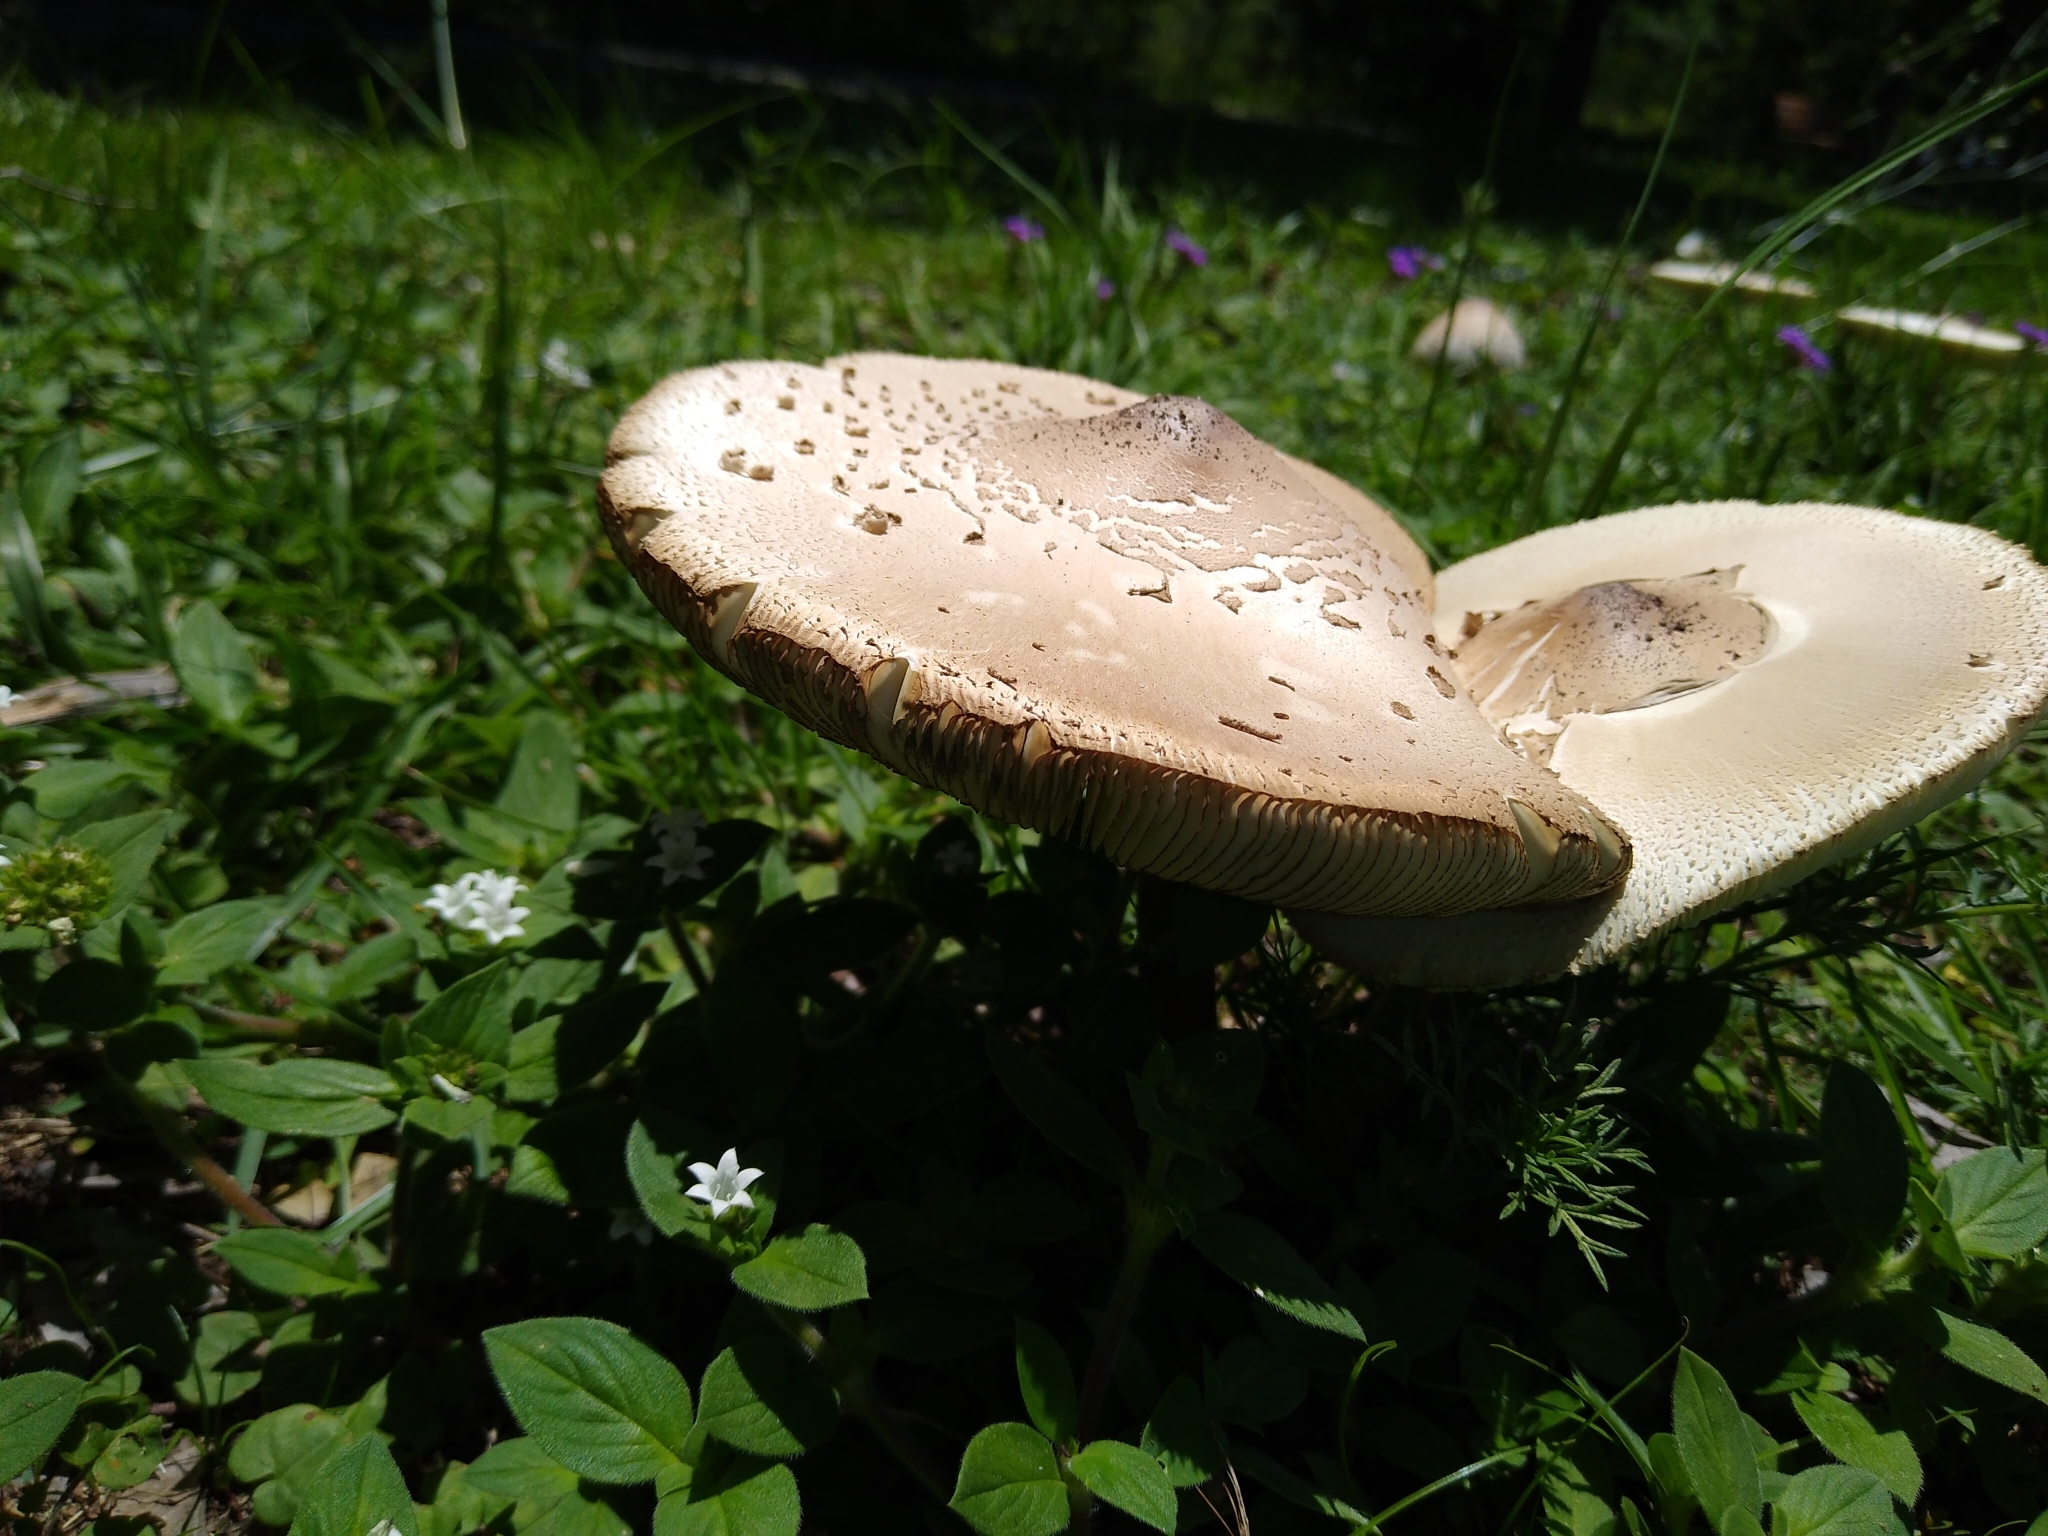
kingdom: Fungi
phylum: Basidiomycota
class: Agaricomycetes
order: Agaricales
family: Agaricaceae
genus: Chlorophyllum
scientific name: Chlorophyllum molybdites
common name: False parasol
